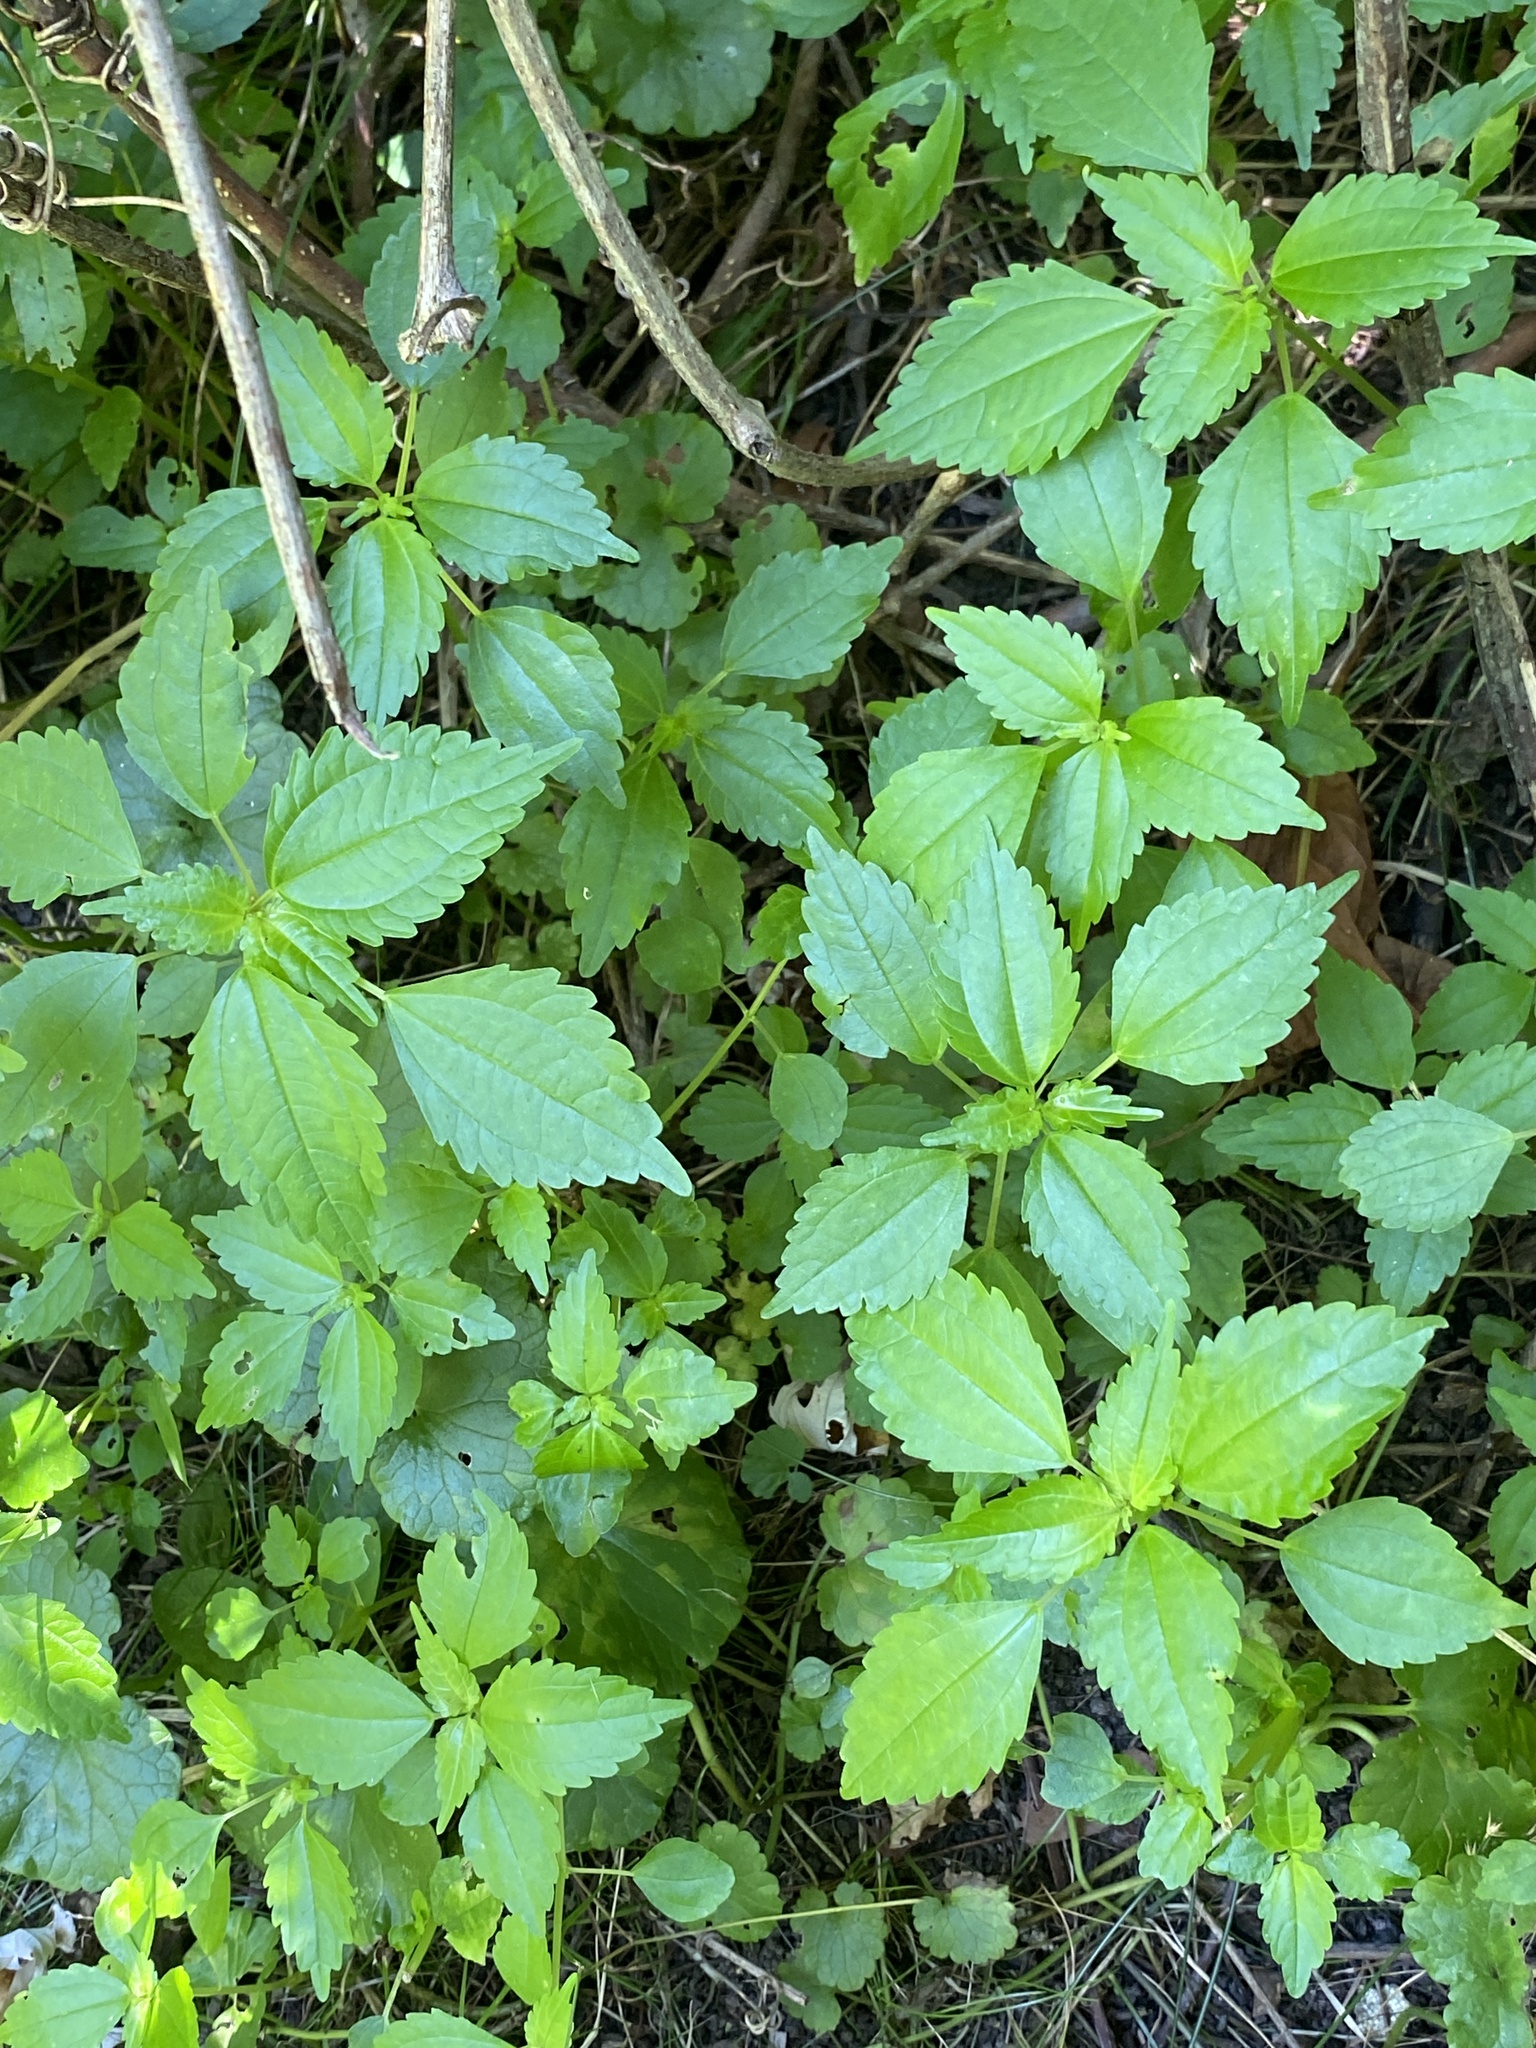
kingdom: Plantae
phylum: Tracheophyta
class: Magnoliopsida
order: Rosales
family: Urticaceae
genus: Pilea
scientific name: Pilea pumila
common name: Clearweed
